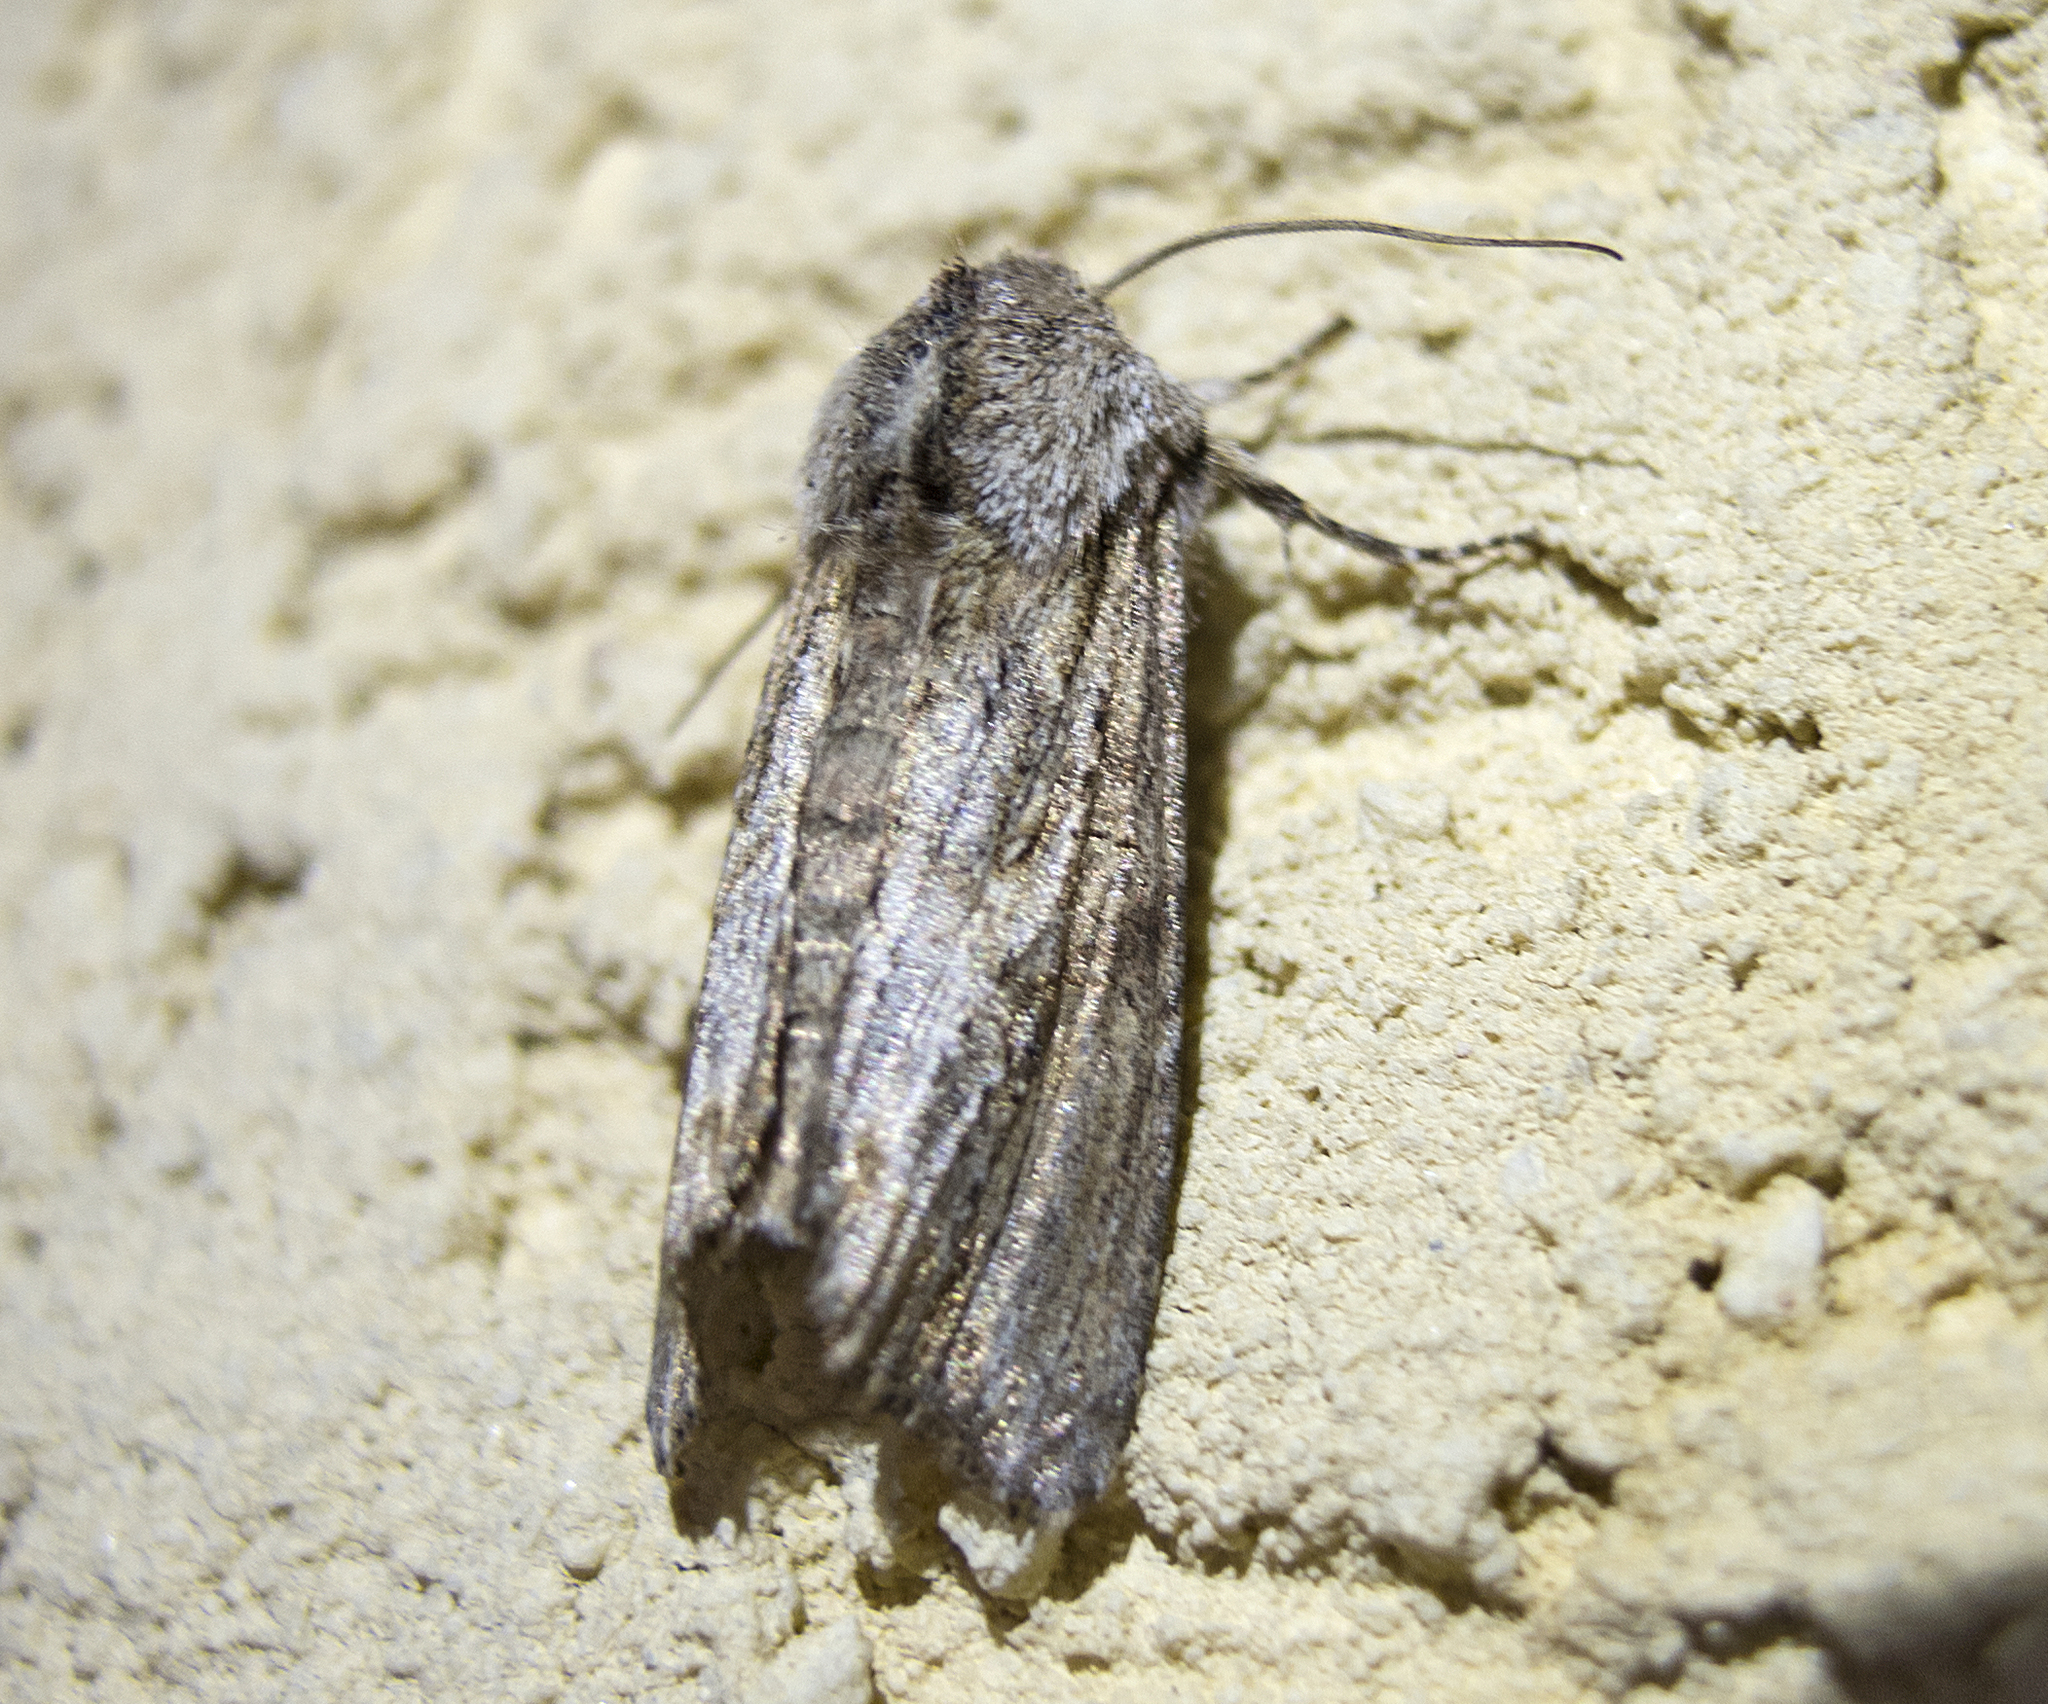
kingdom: Animalia
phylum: Arthropoda
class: Insecta
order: Lepidoptera
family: Noctuidae
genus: Egira
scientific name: Egira
